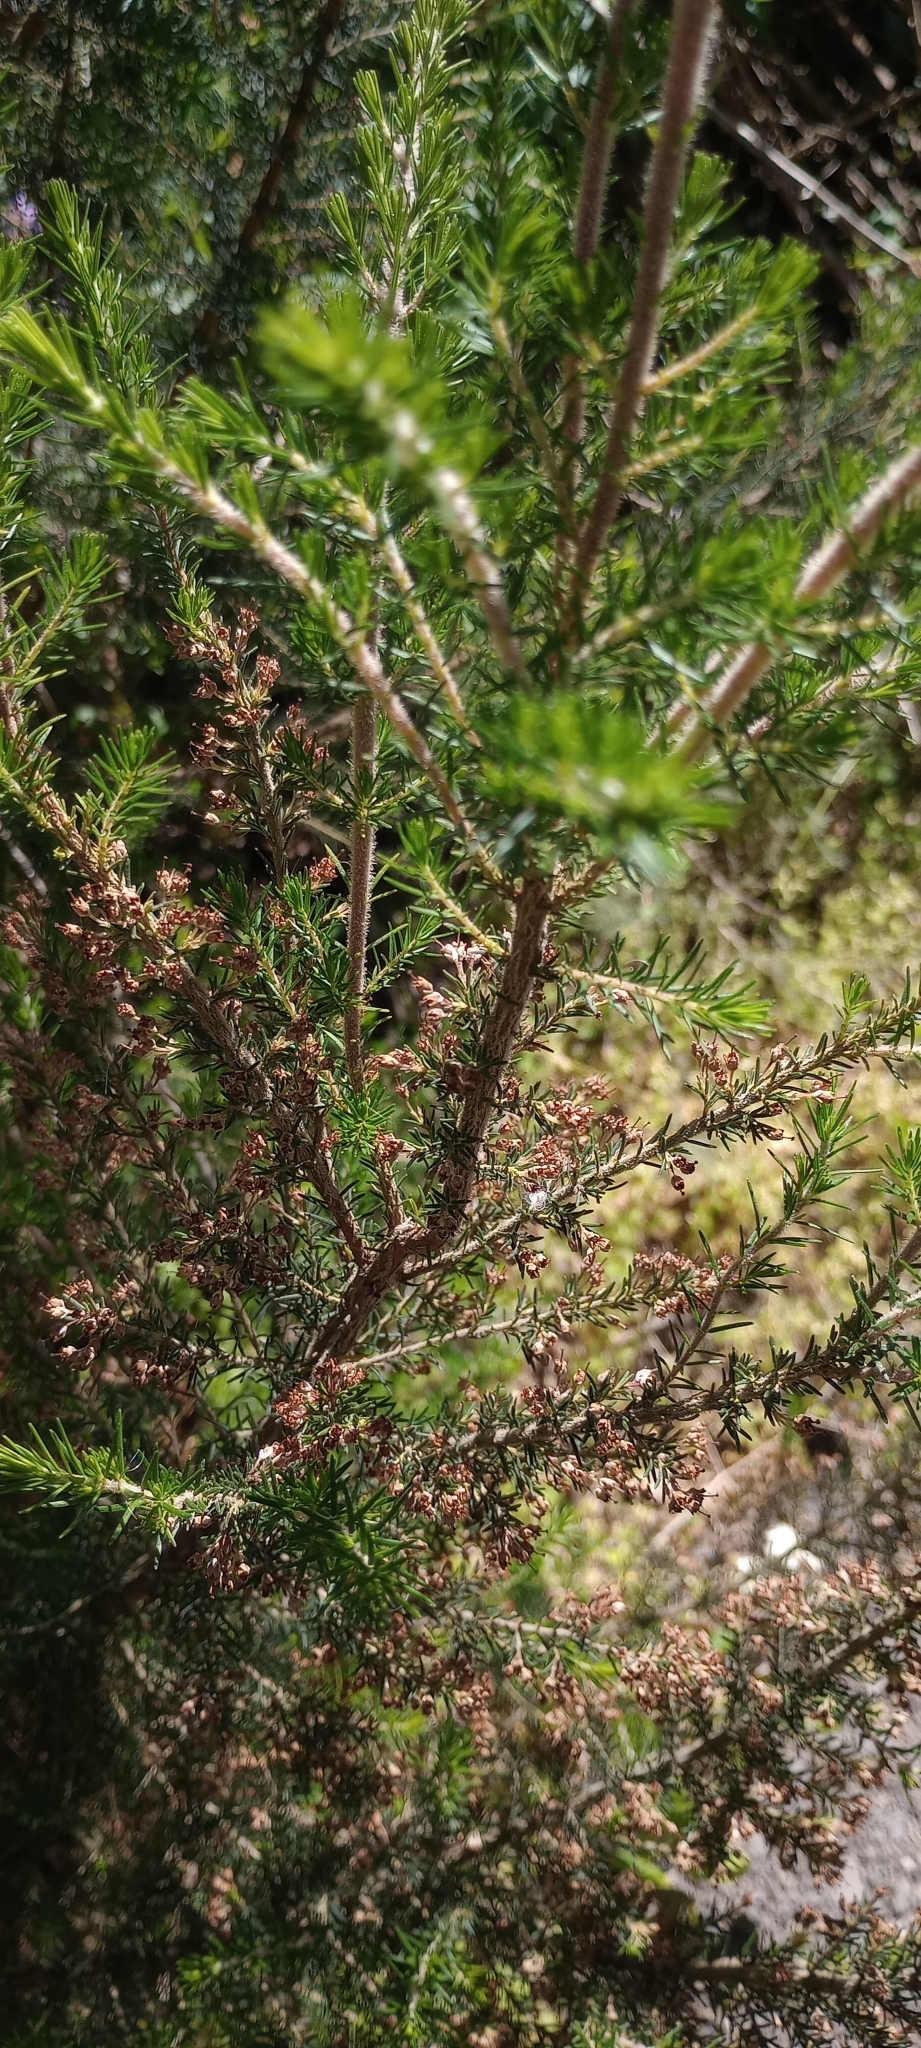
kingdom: Plantae
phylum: Tracheophyta
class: Magnoliopsida
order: Ericales
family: Ericaceae
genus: Erica
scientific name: Erica canariensis
